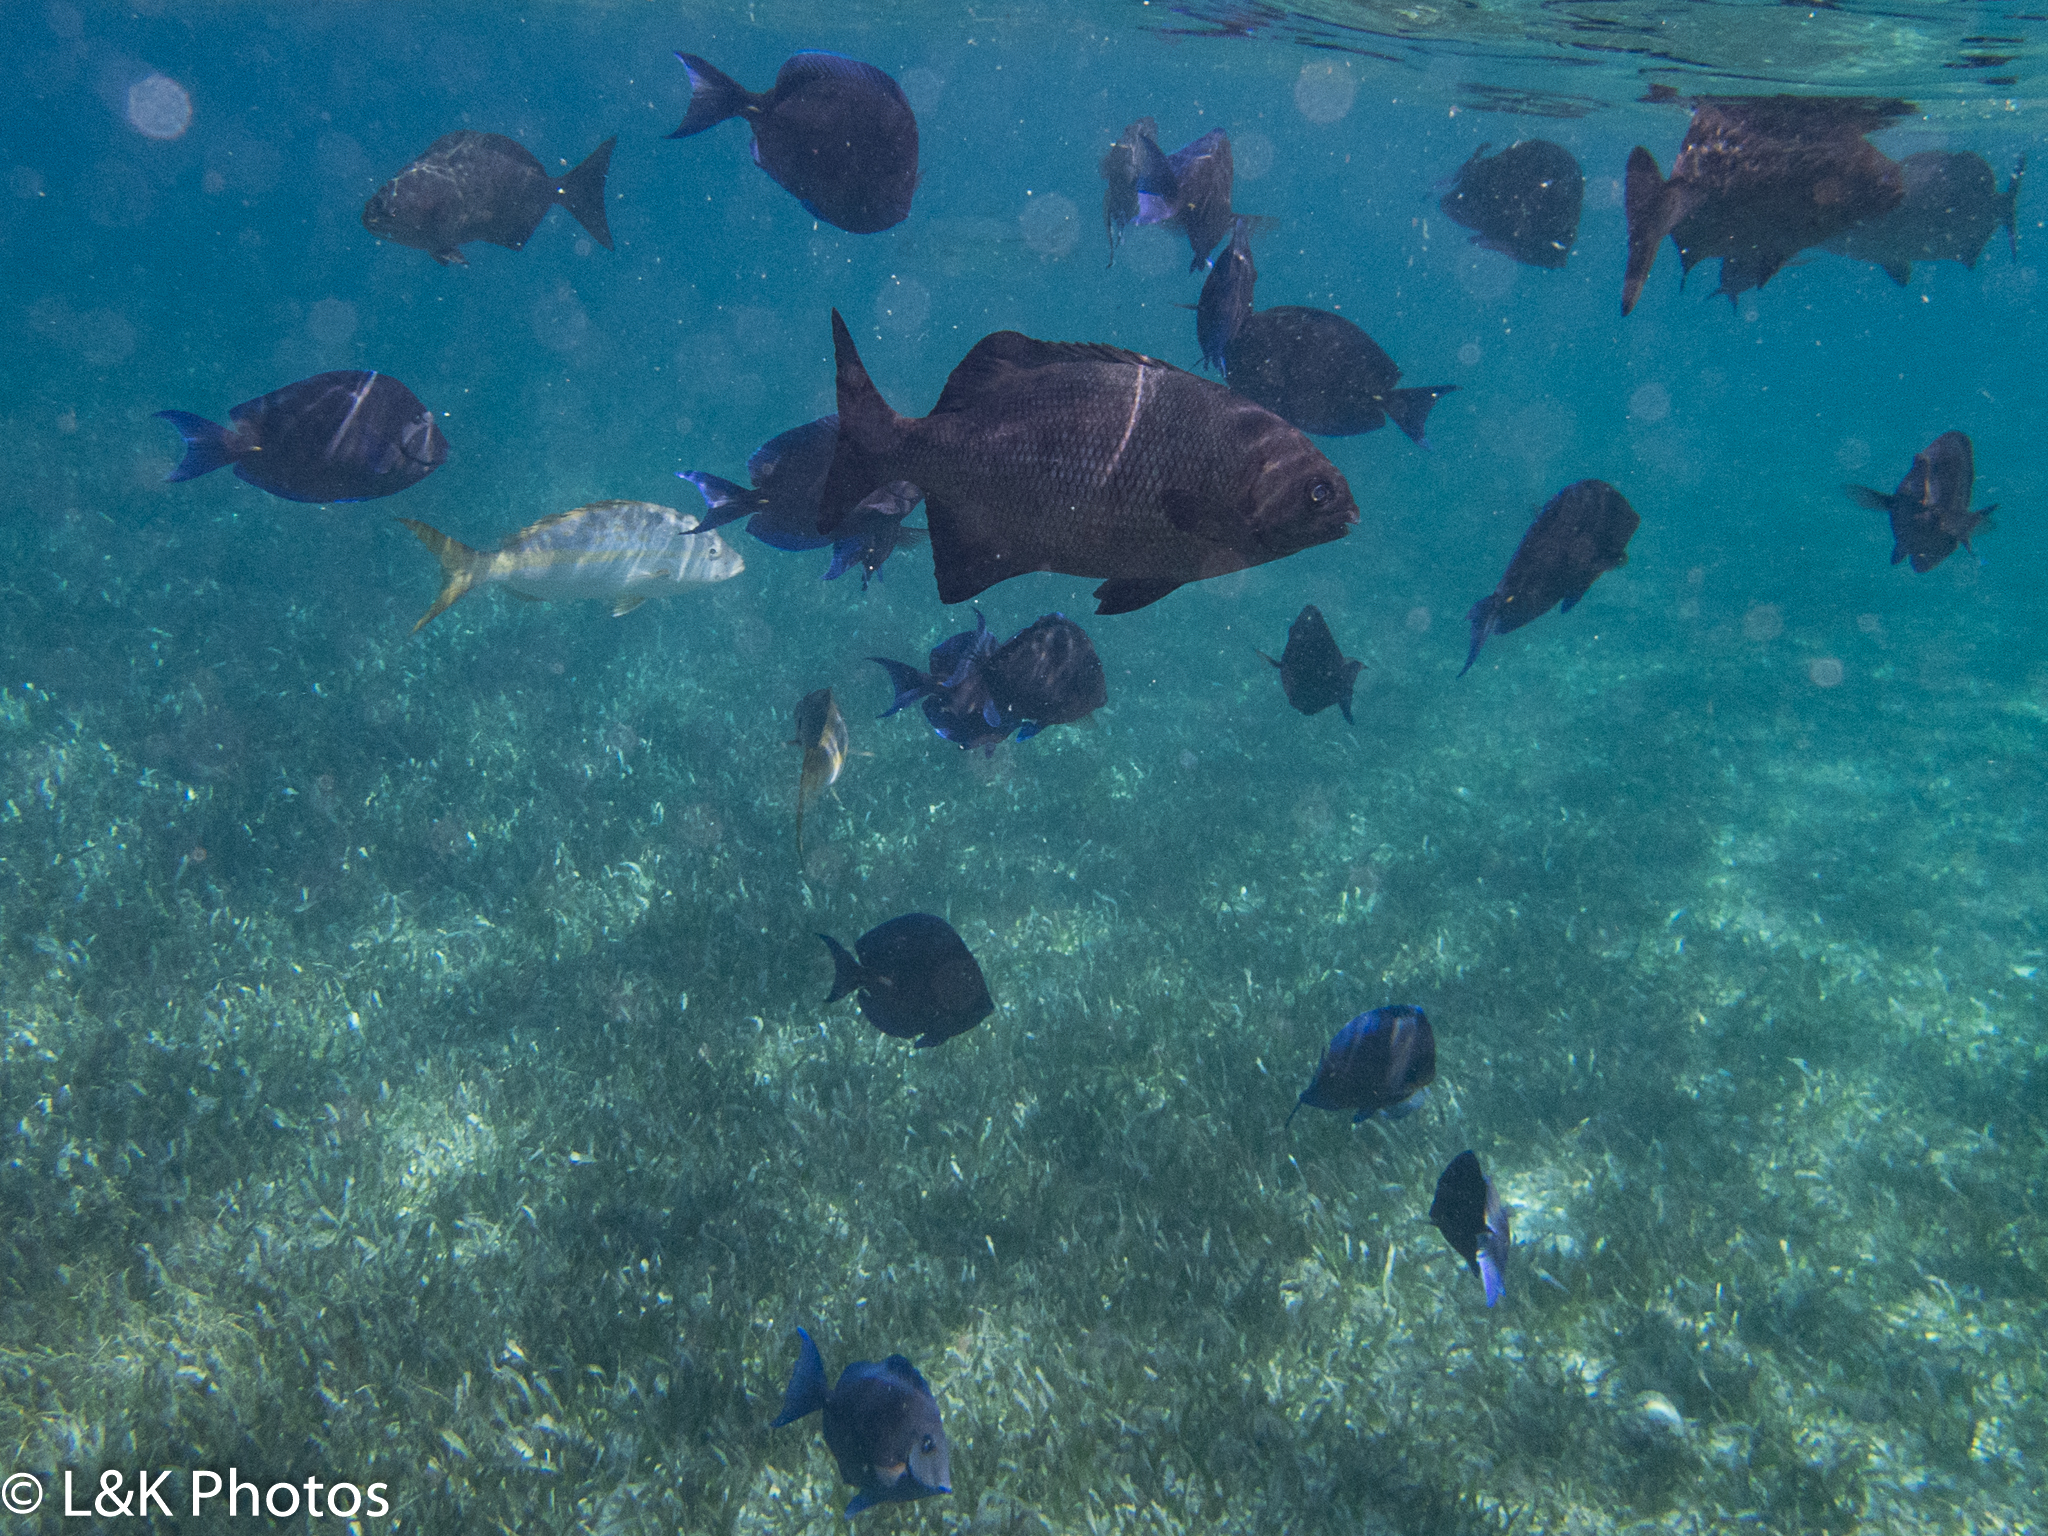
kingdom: Animalia
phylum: Chordata
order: Perciformes
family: Kyphosidae
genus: Kyphosus
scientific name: Kyphosus cinerascens
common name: Topsail drummer
